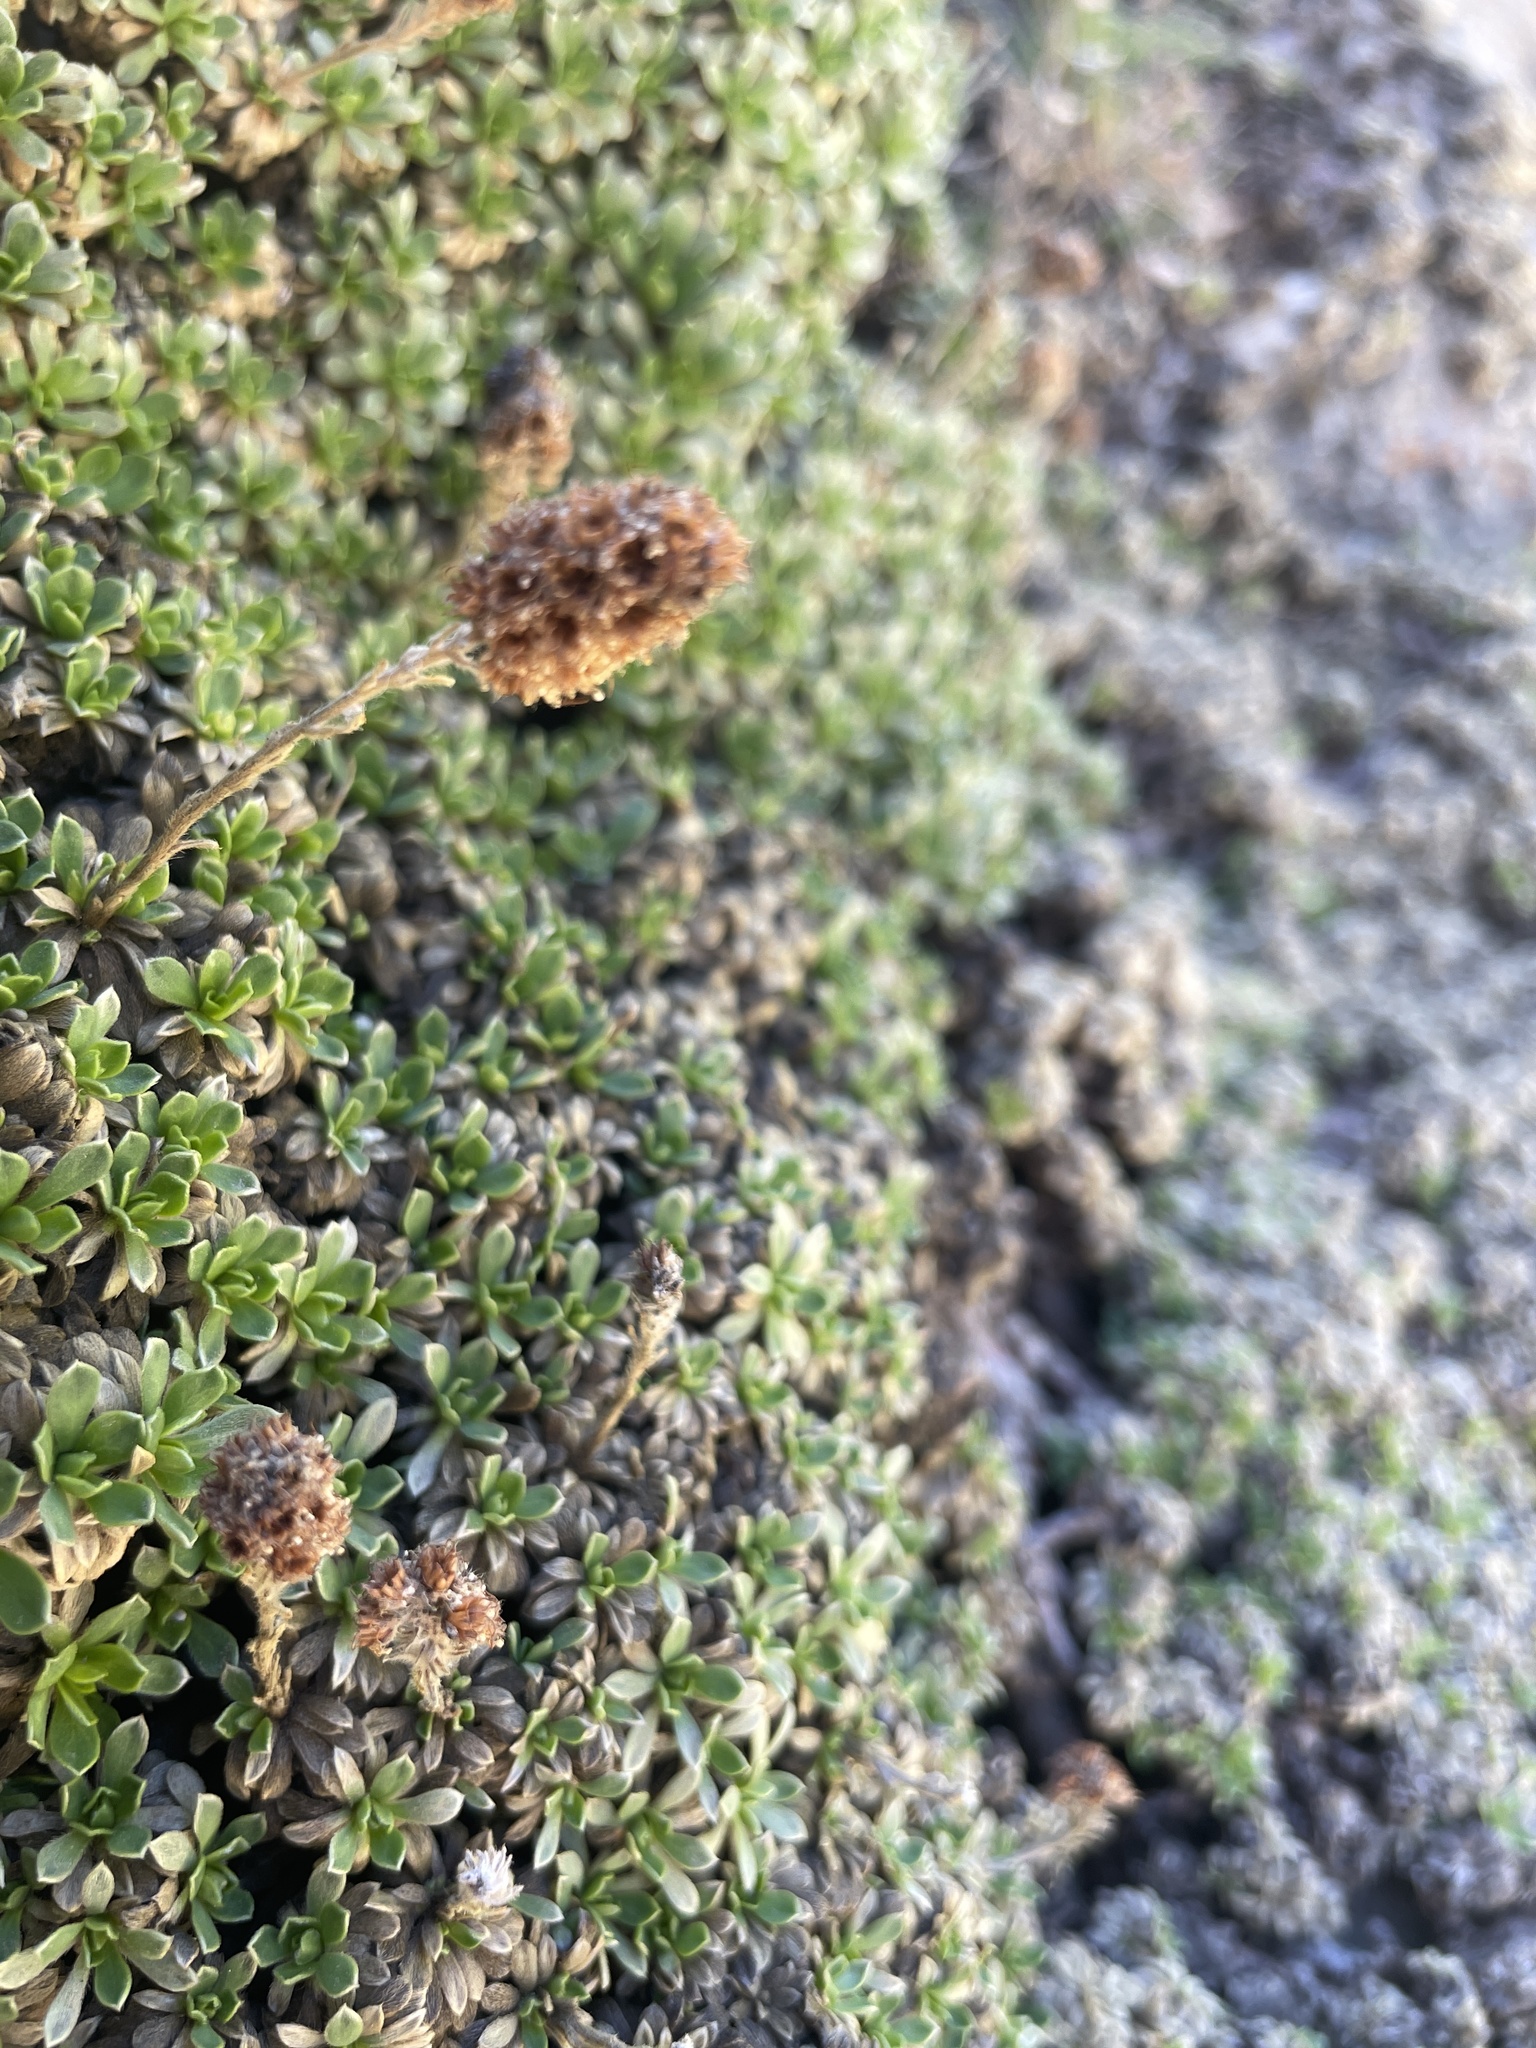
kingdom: Plantae
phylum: Tracheophyta
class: Magnoliopsida
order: Rosales
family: Rosaceae
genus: Petrophytum
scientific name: Petrophytum caespitosum
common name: Mat rockspirea
